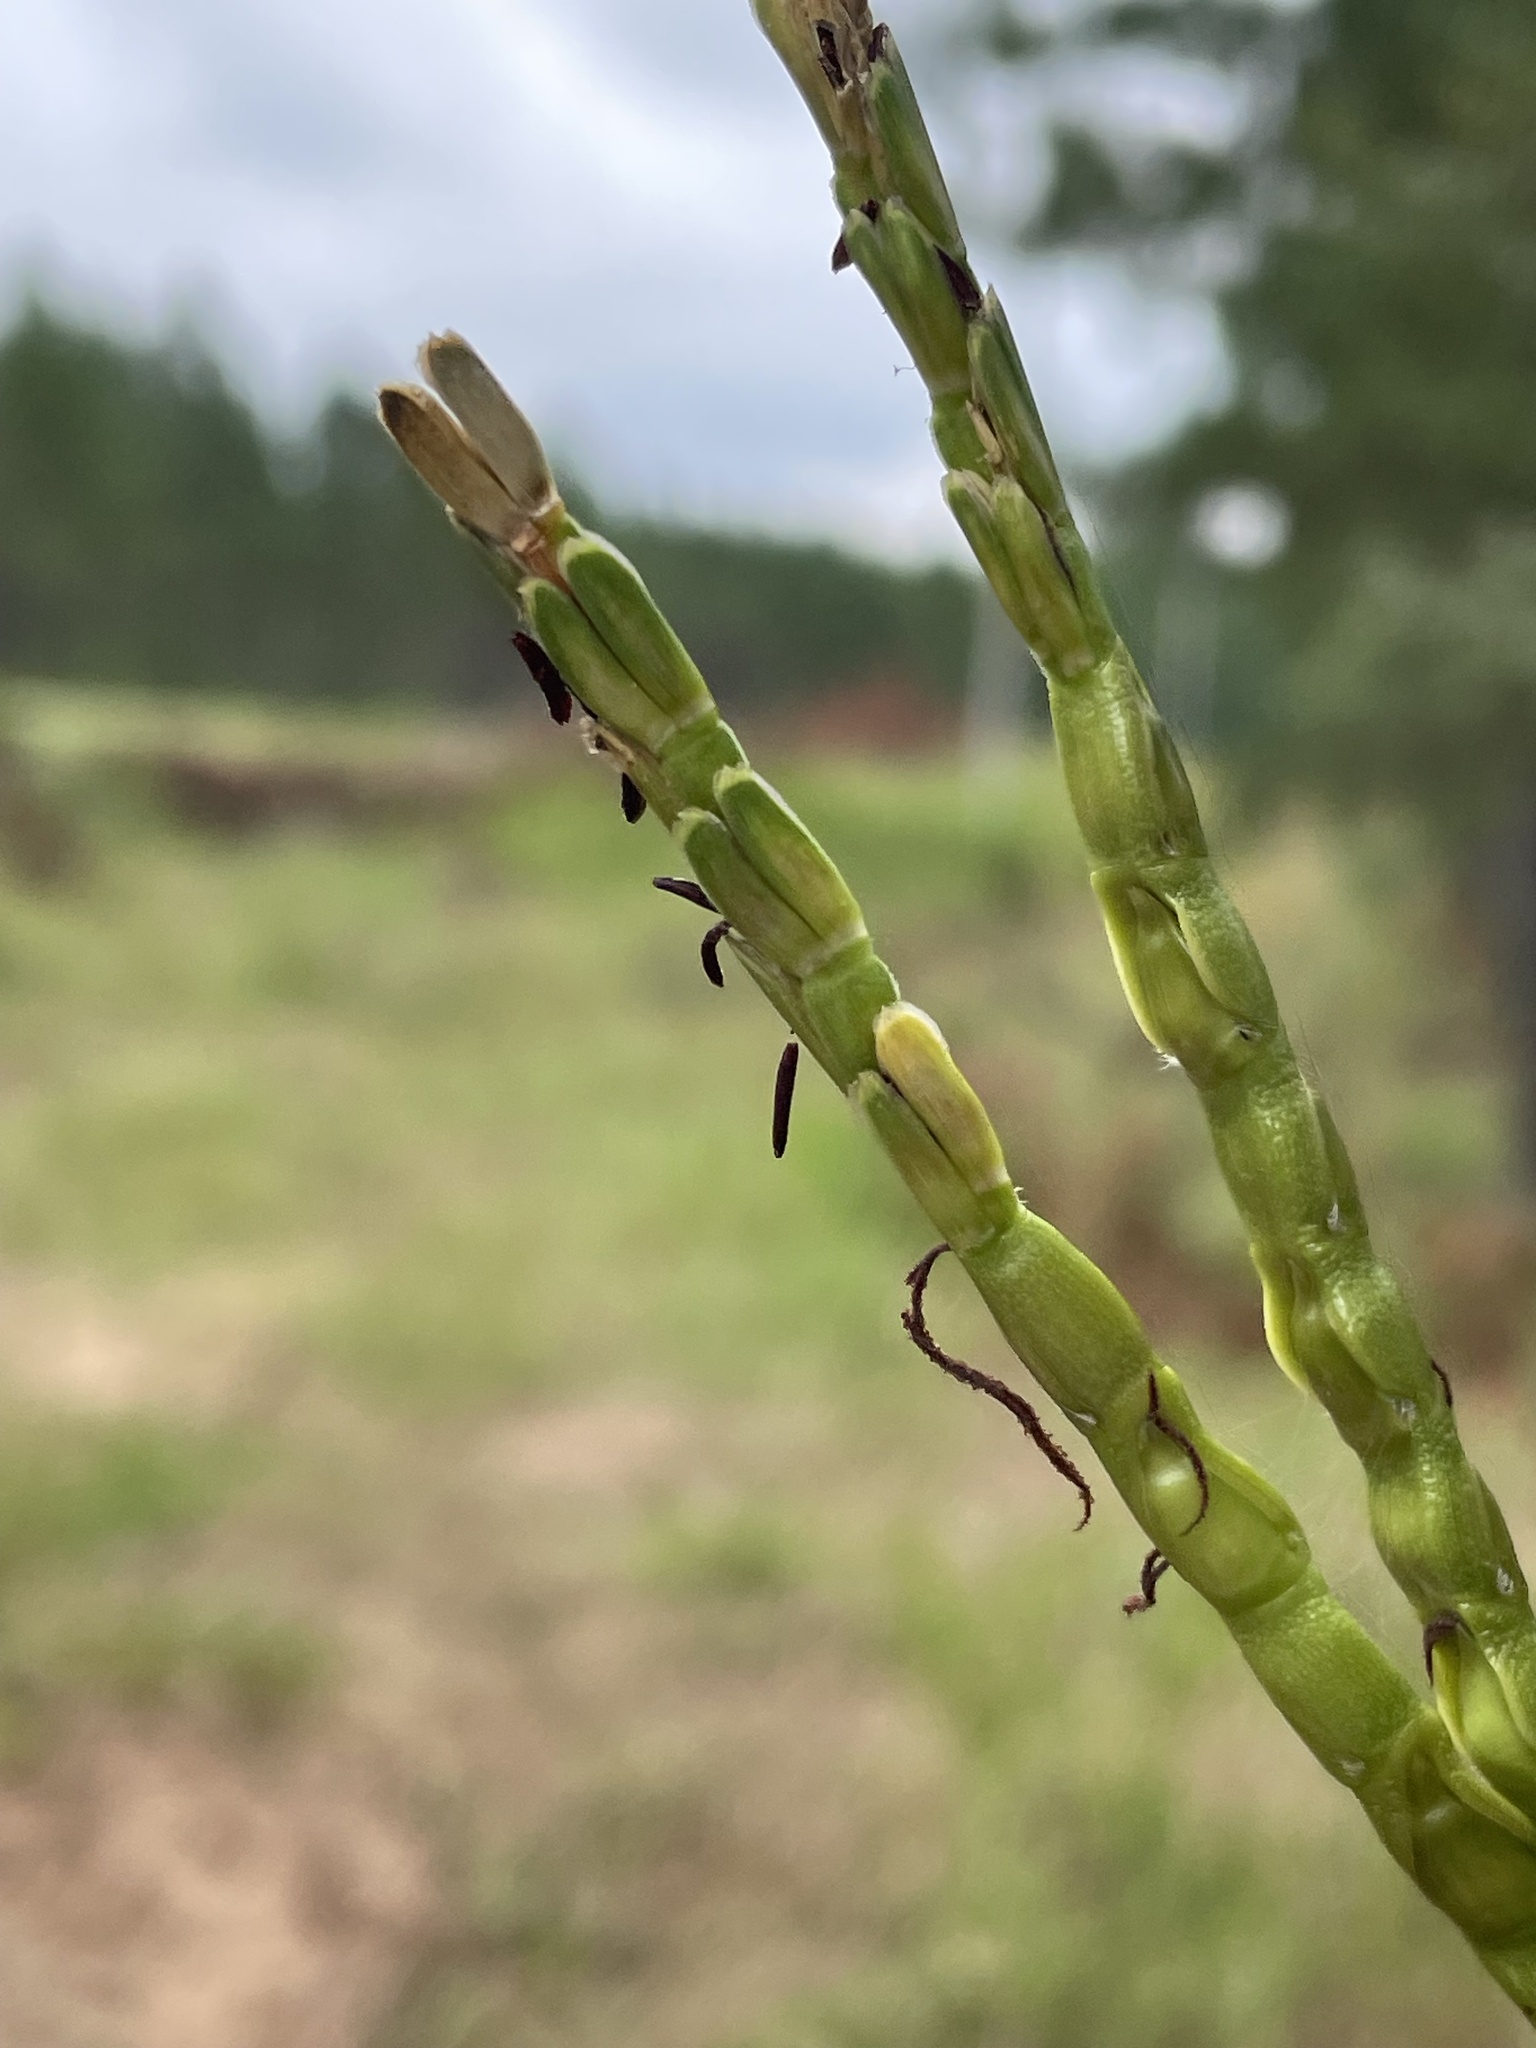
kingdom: Plantae
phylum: Tracheophyta
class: Liliopsida
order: Poales
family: Poaceae
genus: Tripsacum
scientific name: Tripsacum dactyloides
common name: Buffalo-grass
